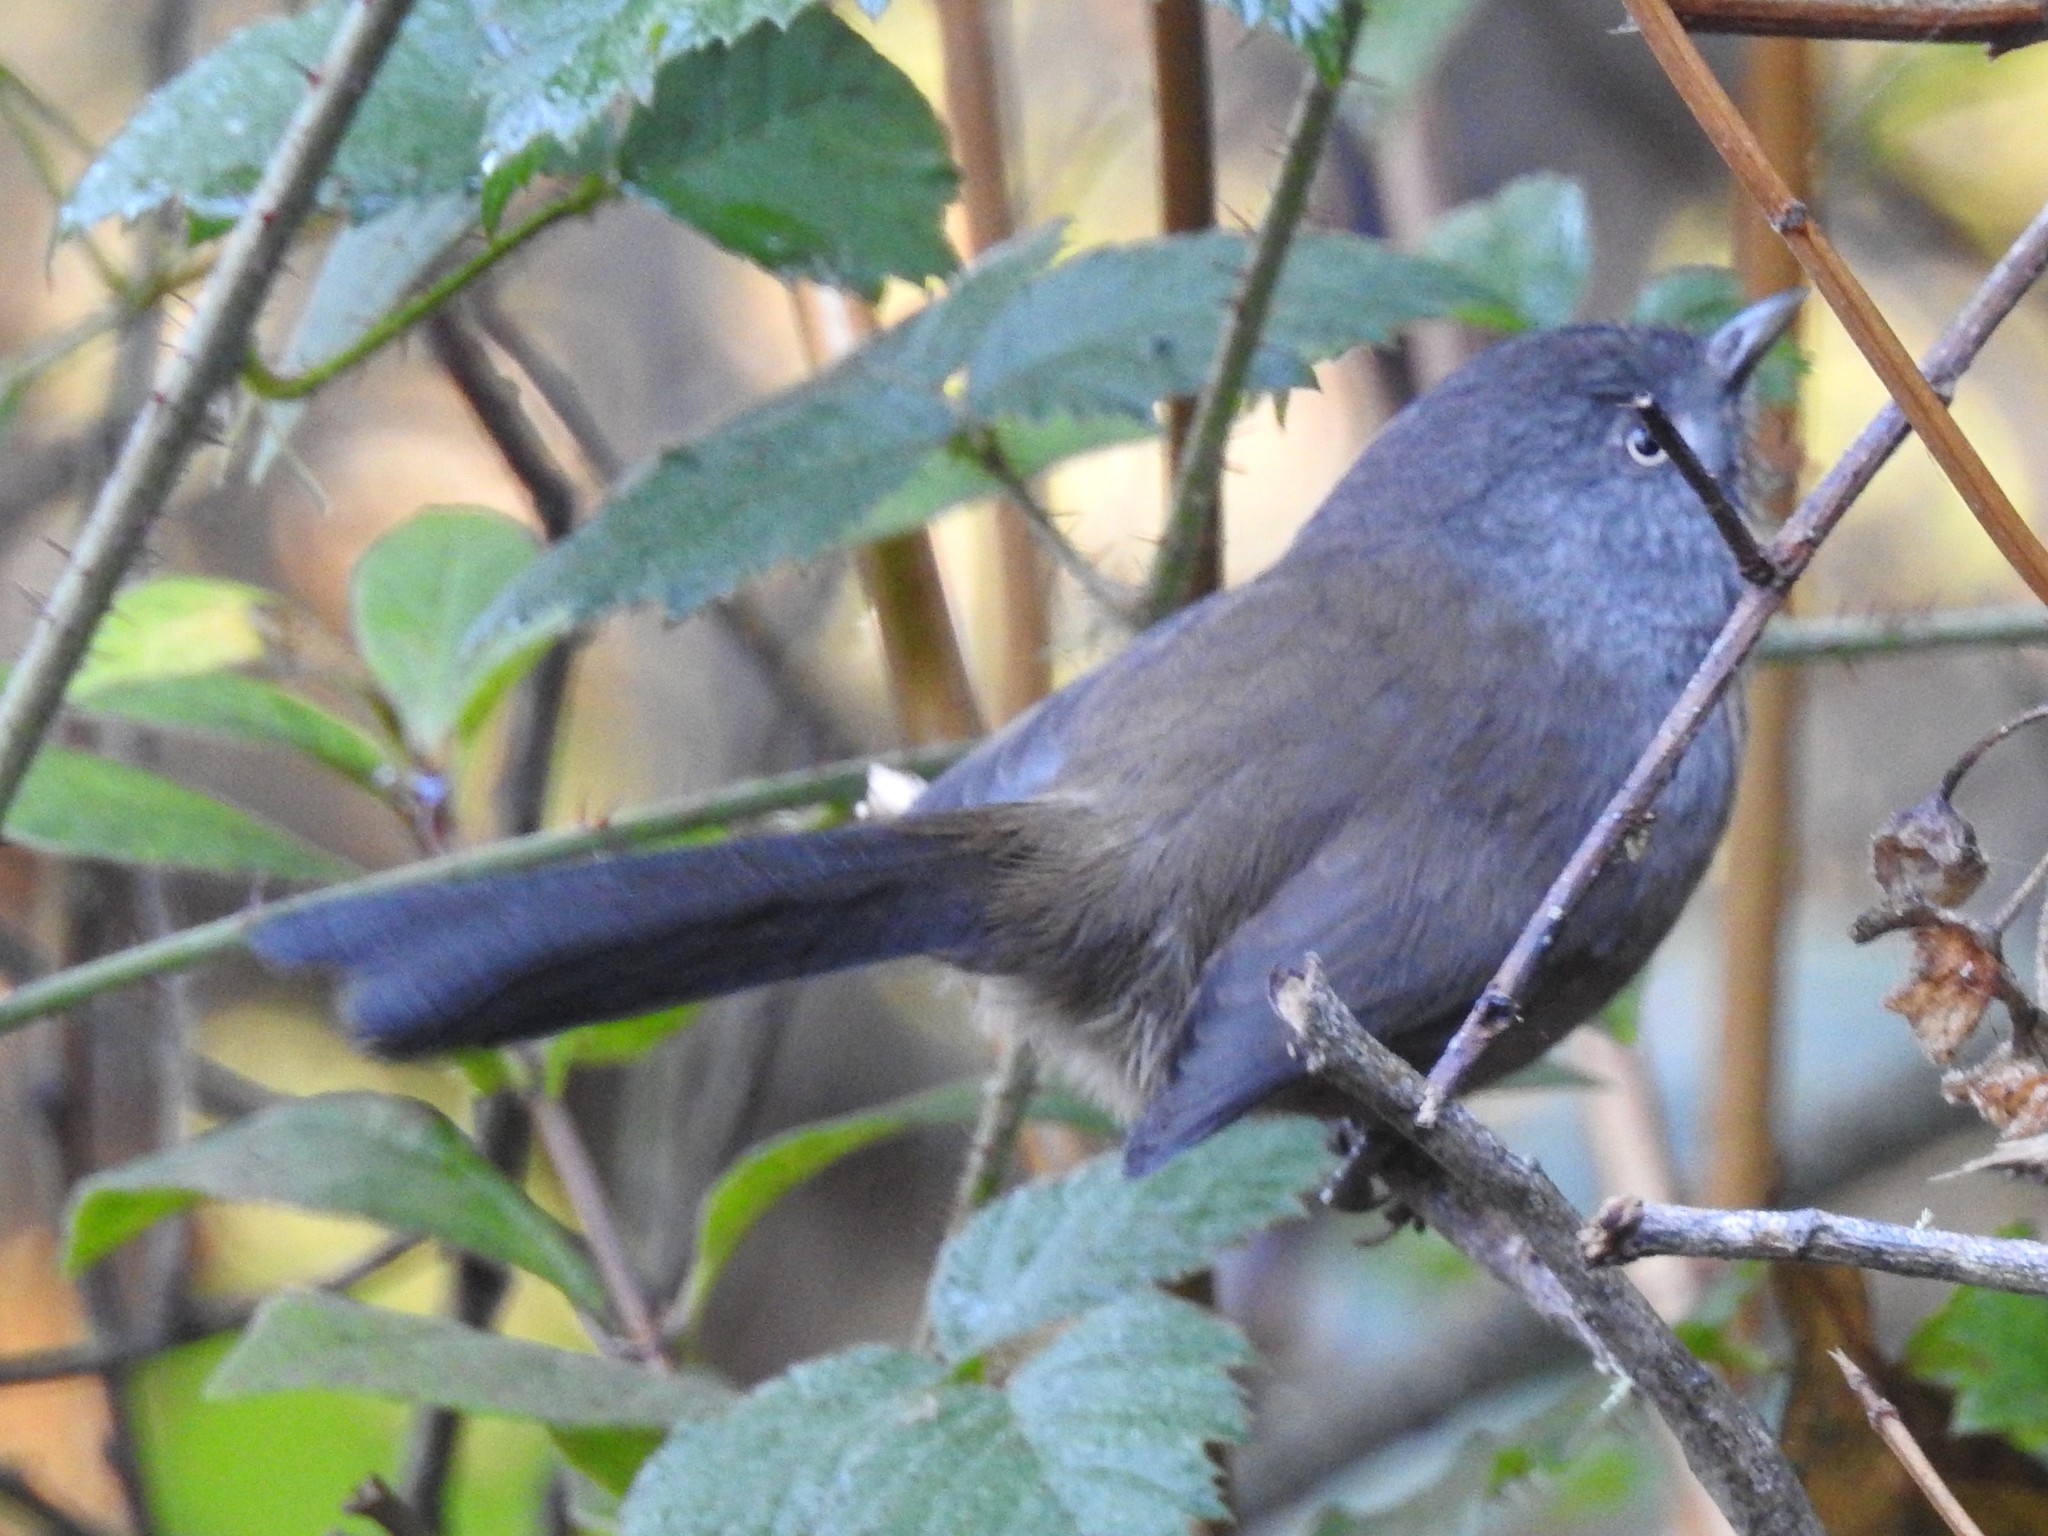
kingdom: Animalia
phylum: Chordata
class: Aves
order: Passeriformes
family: Sylviidae
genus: Chamaea
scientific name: Chamaea fasciata
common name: Wrentit
